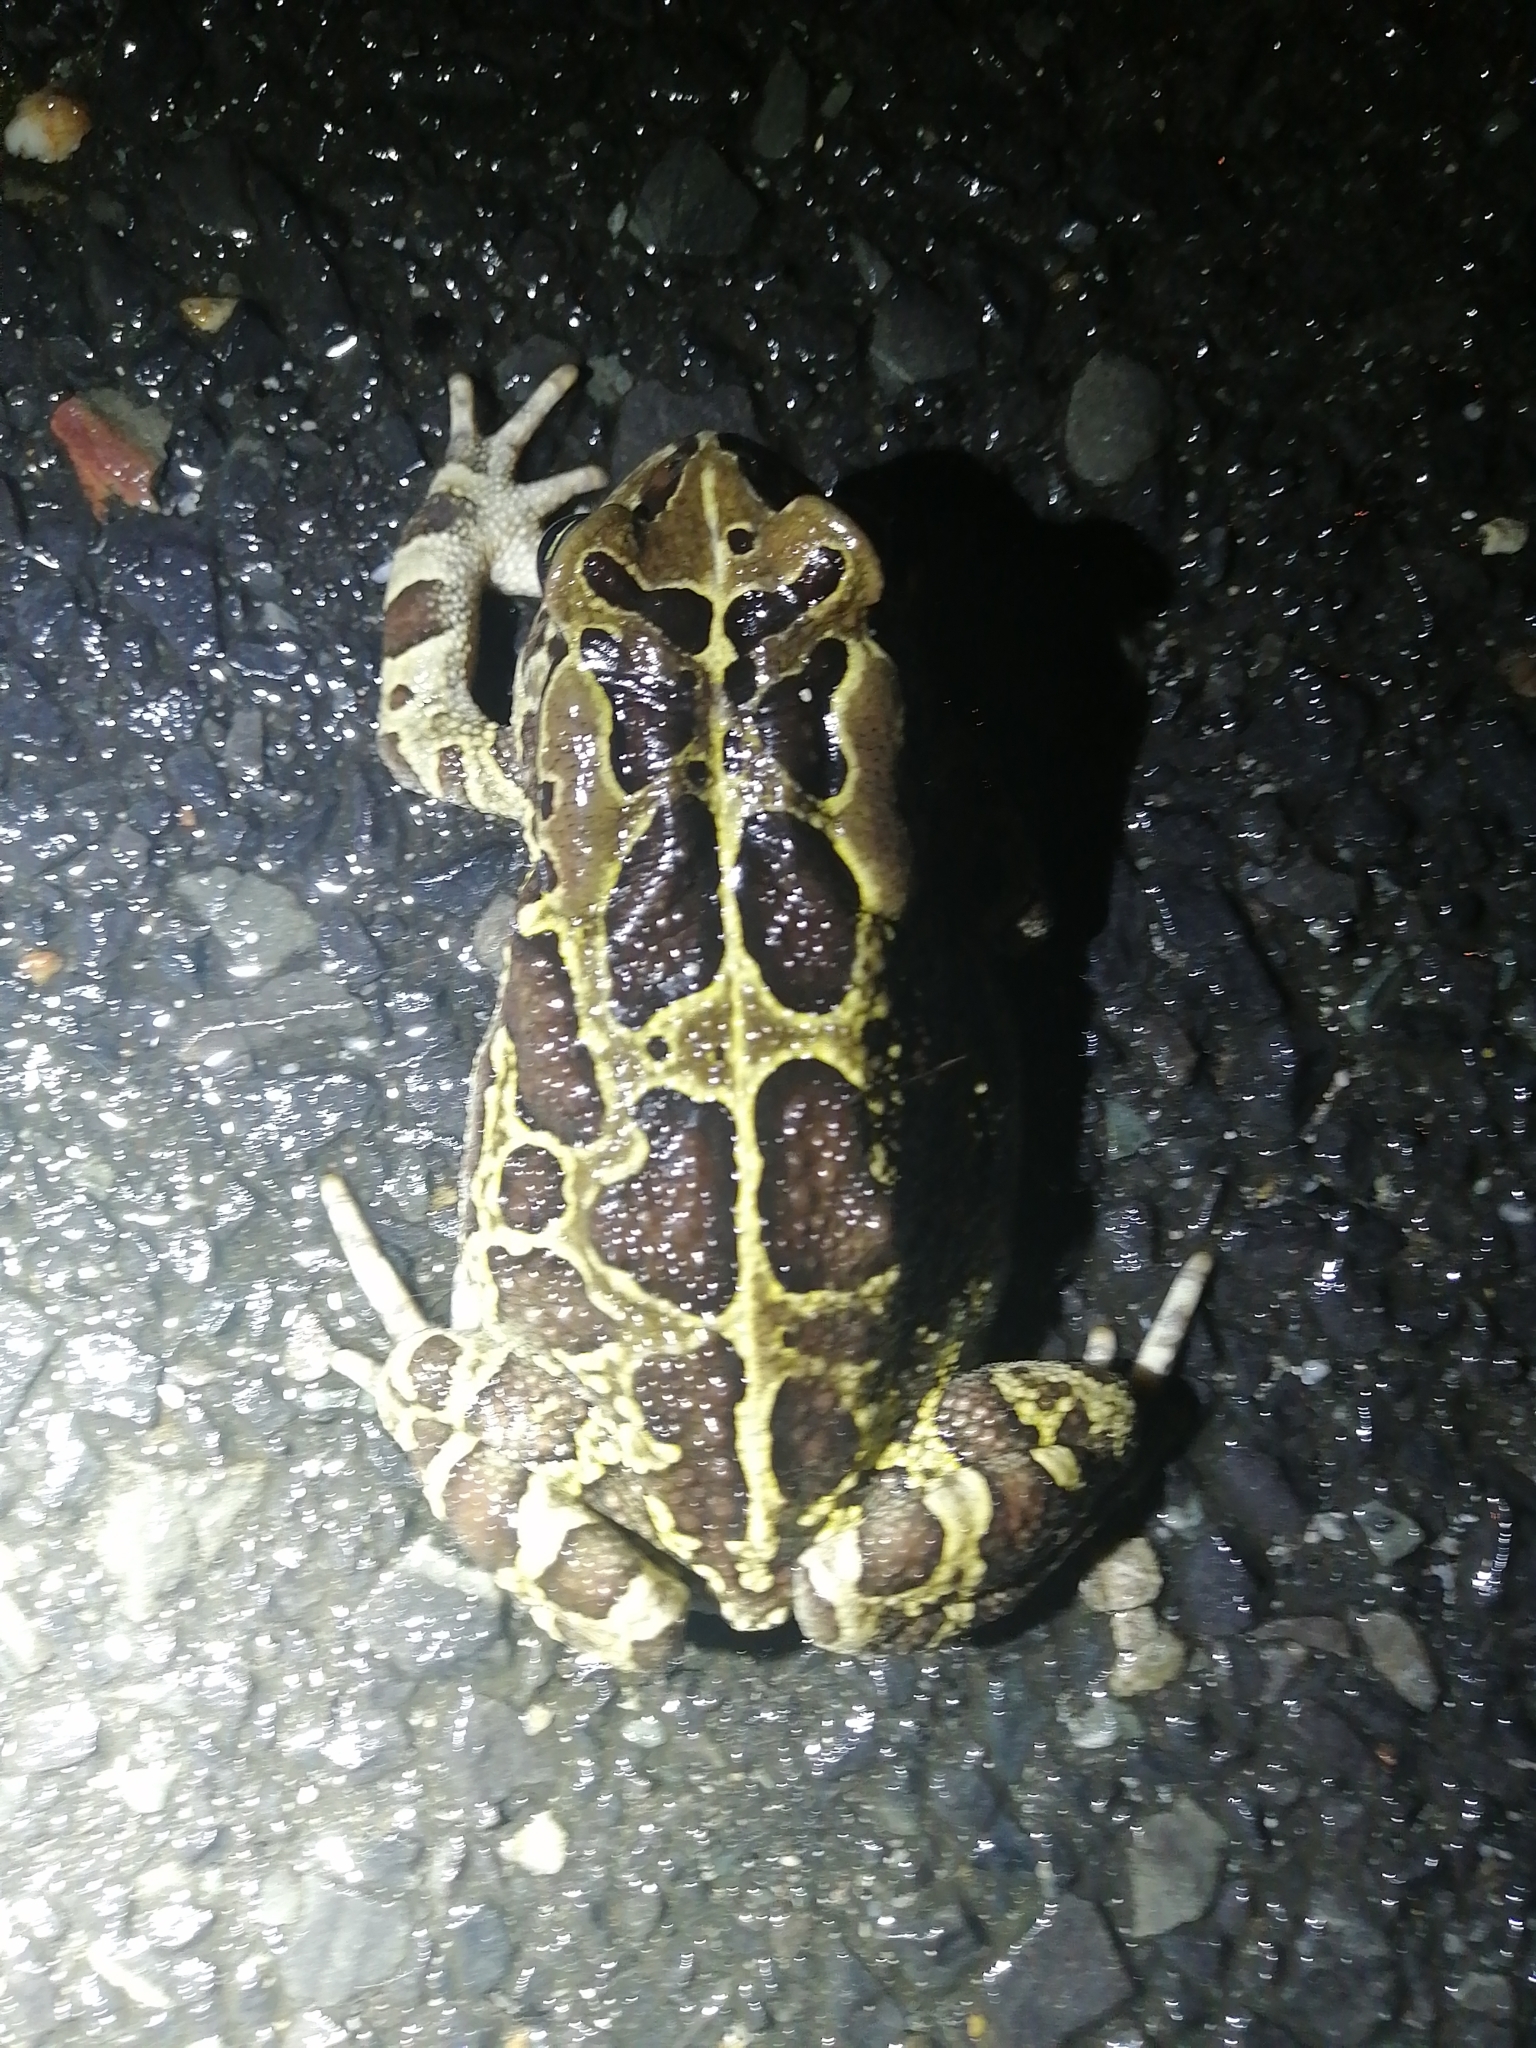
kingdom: Animalia
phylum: Chordata
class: Amphibia
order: Anura
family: Bufonidae
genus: Sclerophrys
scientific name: Sclerophrys pantherina
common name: Panther toad
